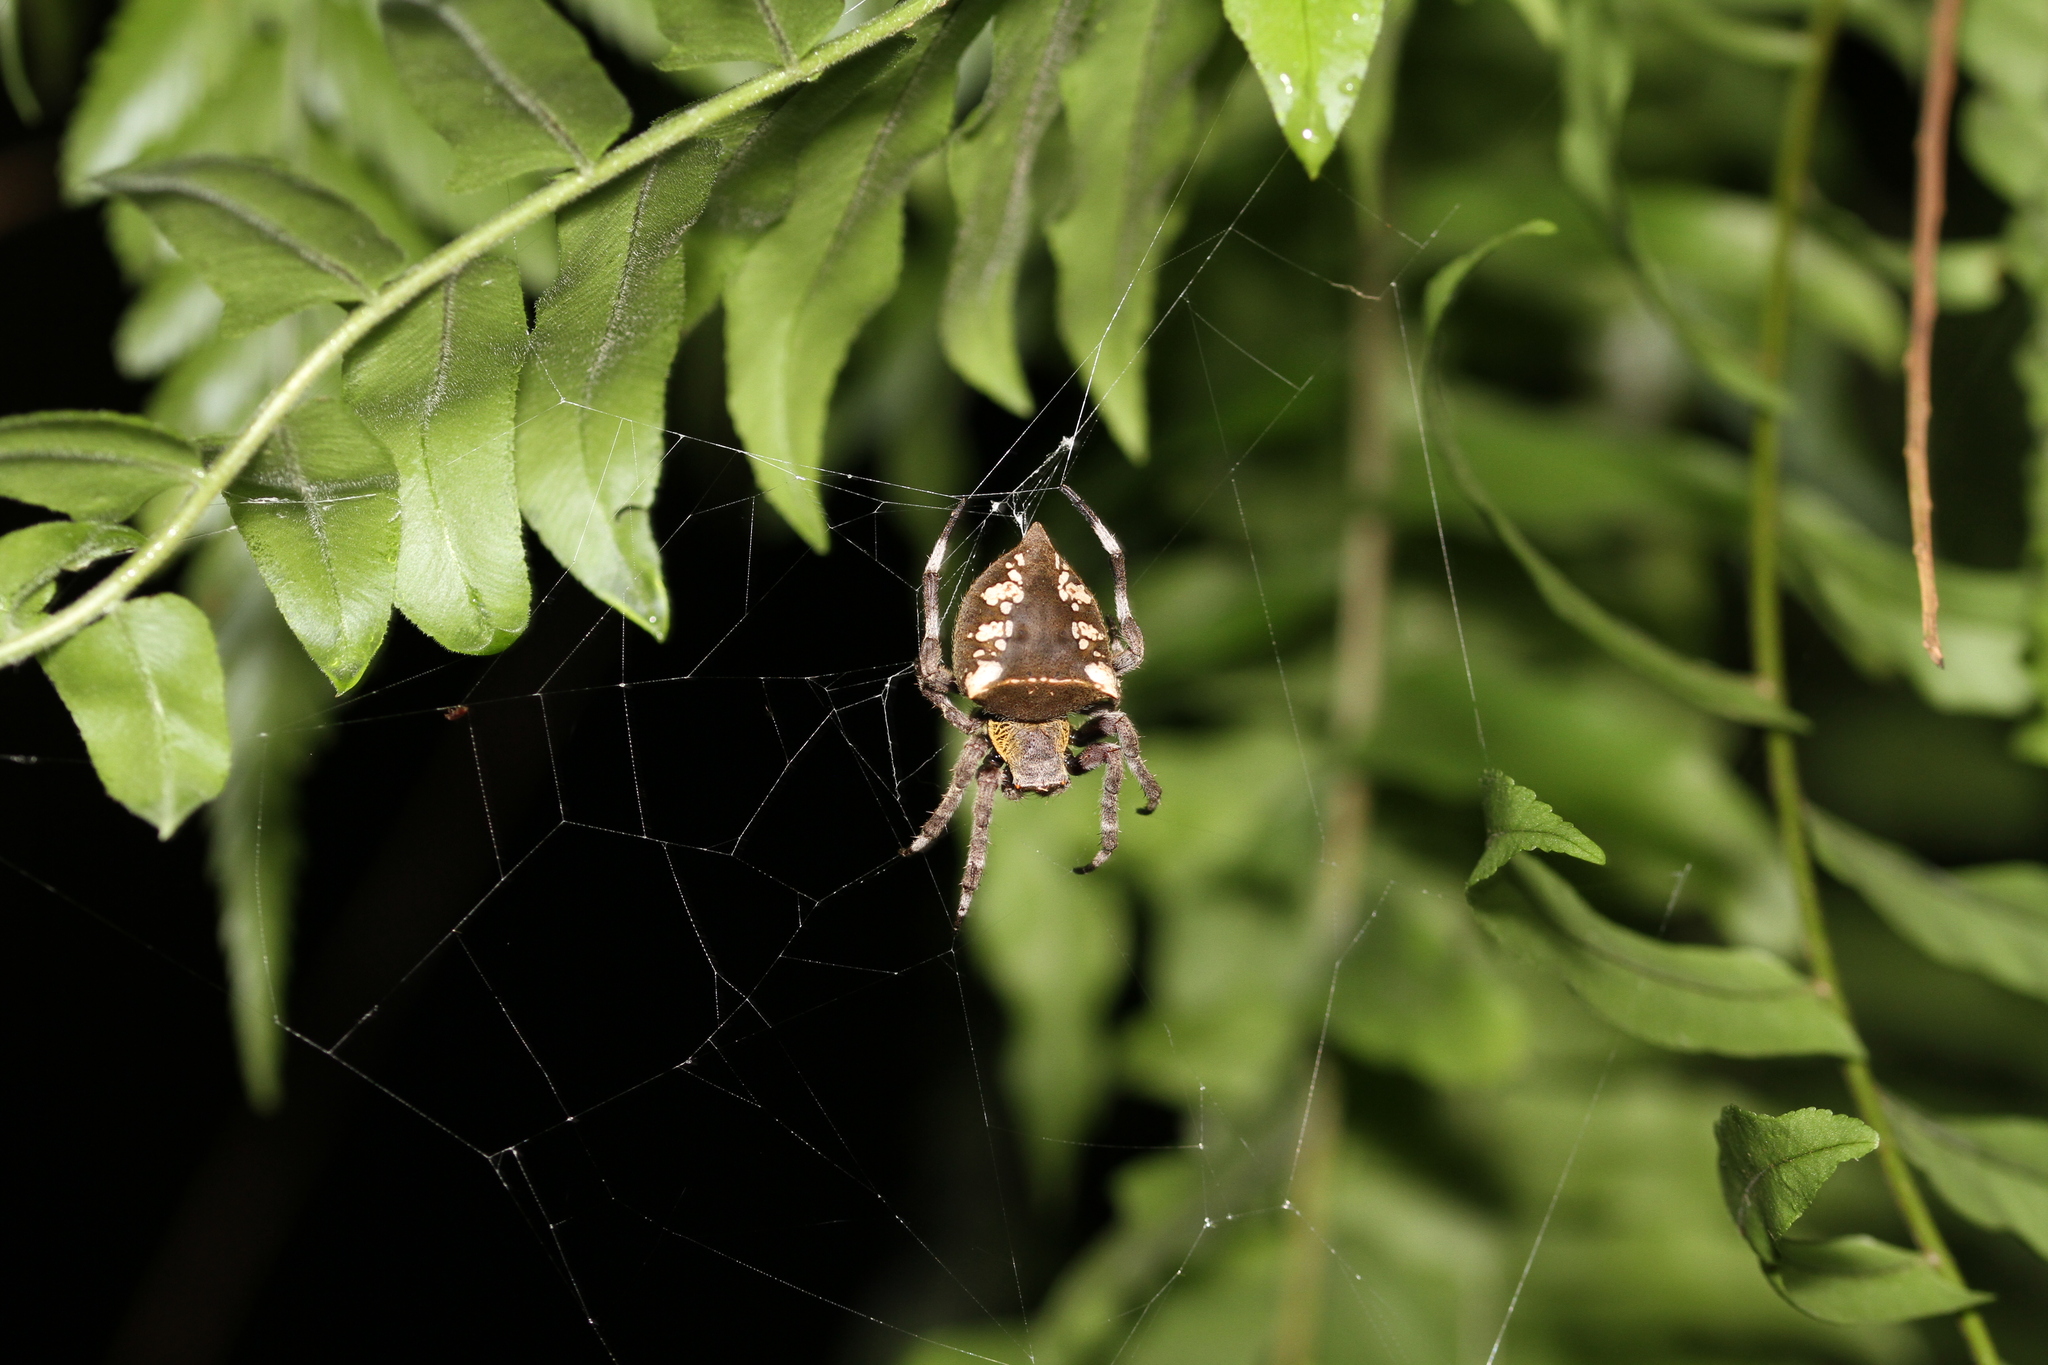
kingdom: Animalia
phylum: Arthropoda
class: Arachnida
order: Araneae
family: Araneidae
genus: Parawixia
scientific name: Parawixia dehaani
